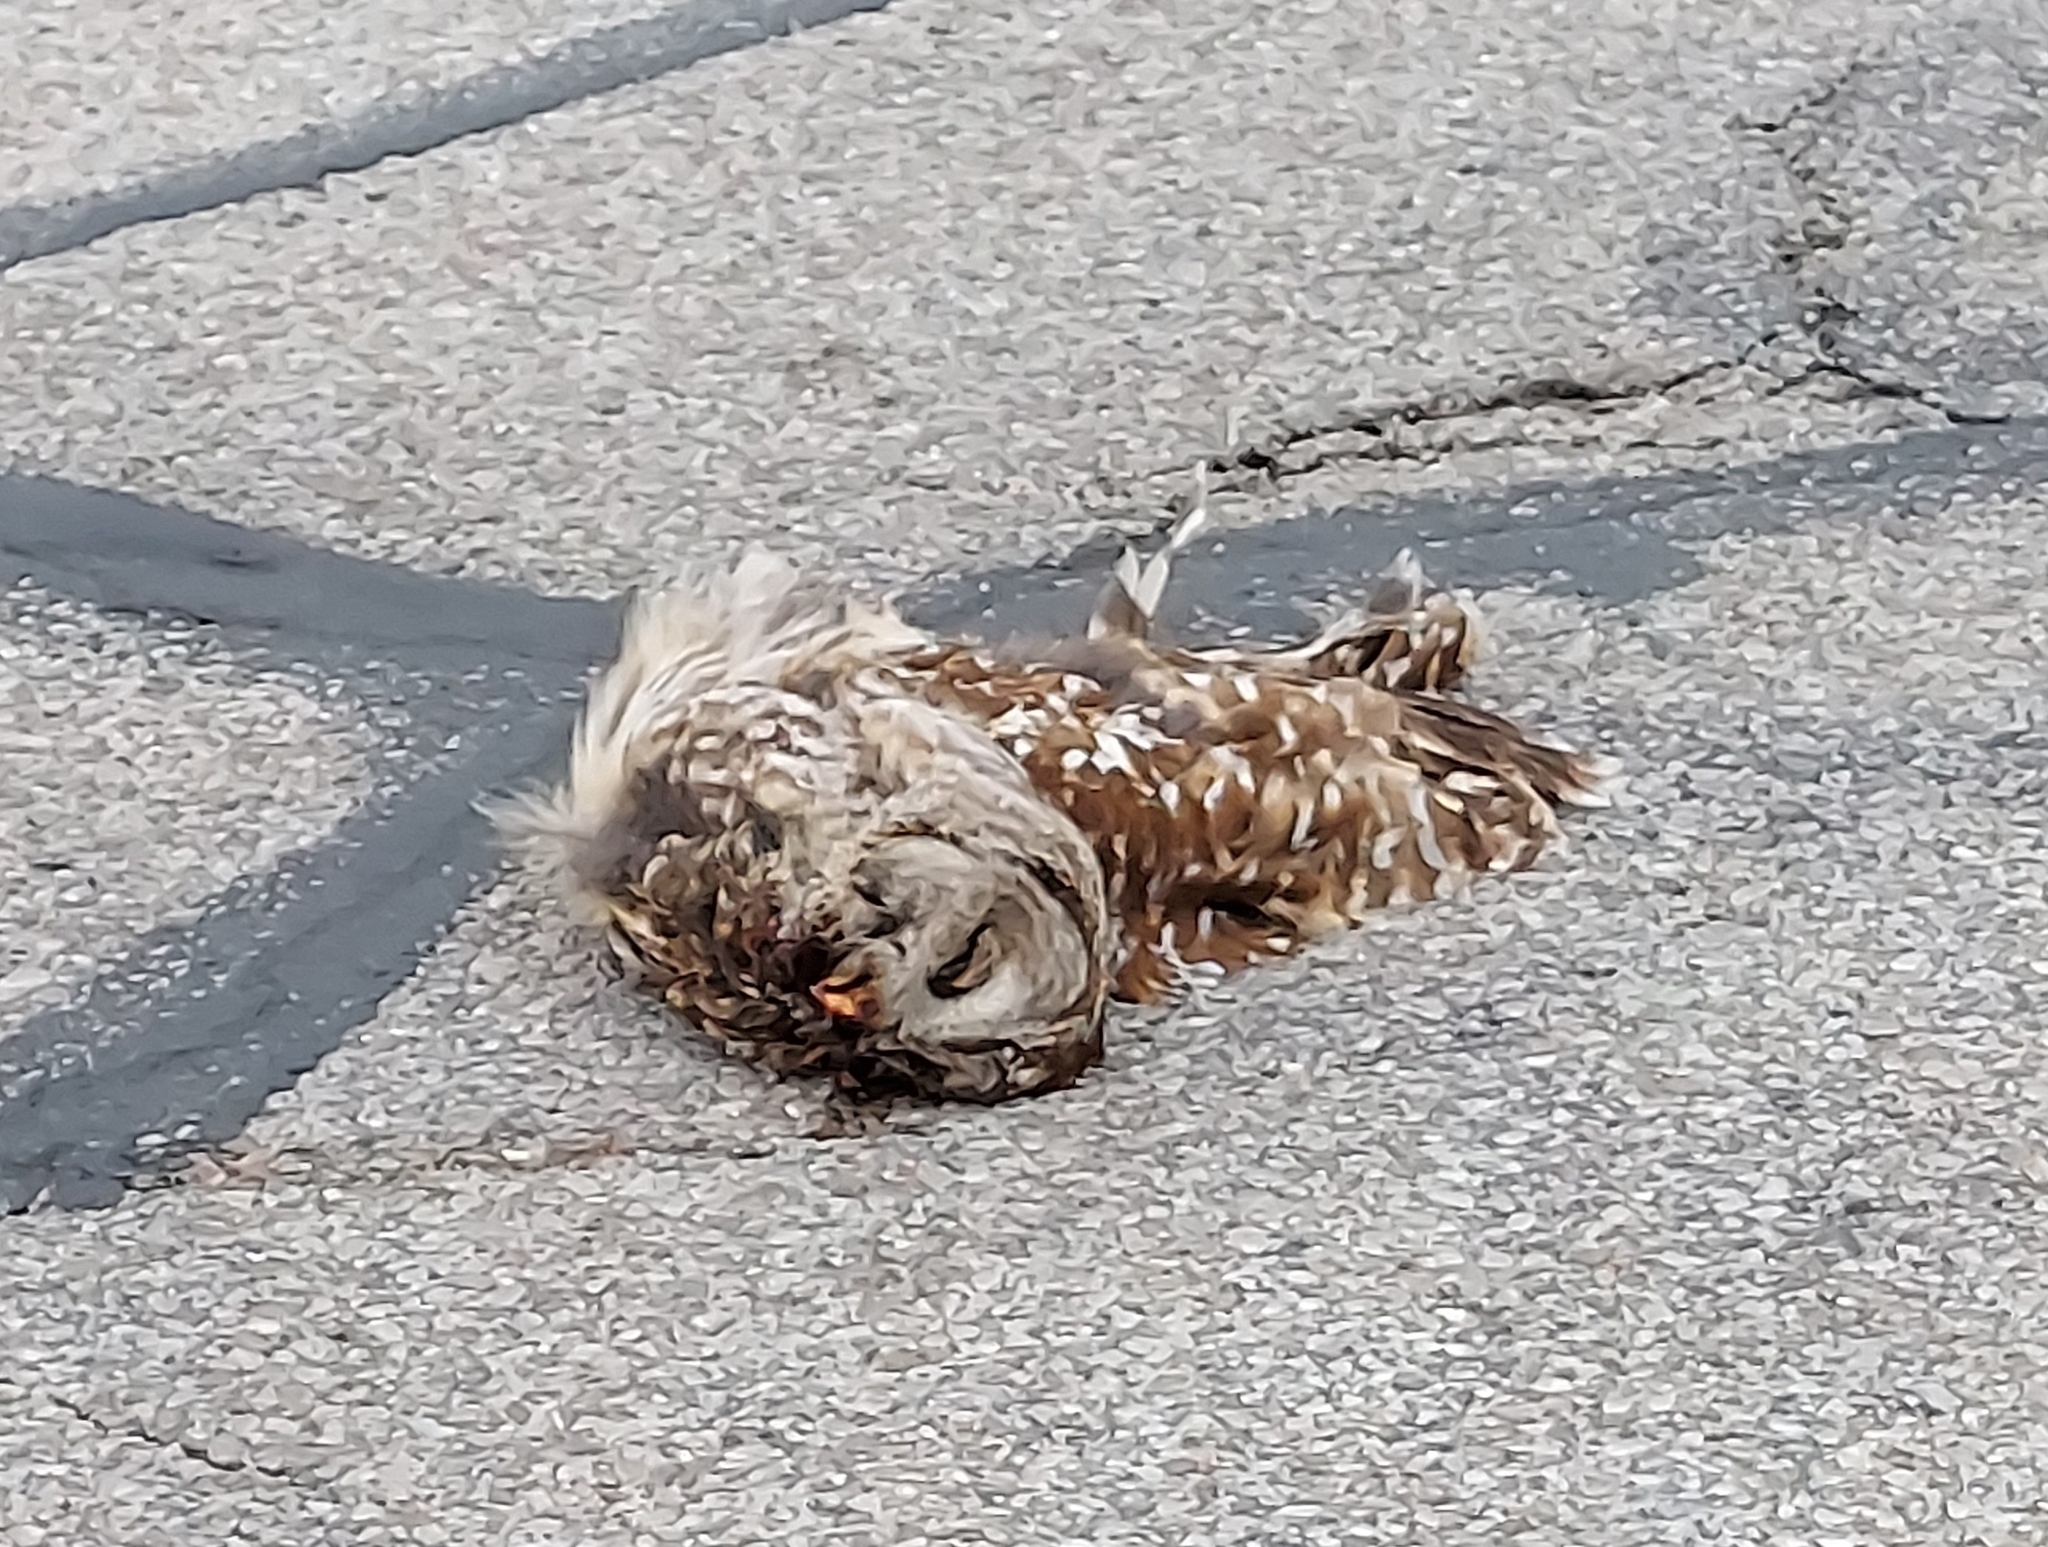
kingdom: Animalia
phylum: Chordata
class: Aves
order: Strigiformes
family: Strigidae
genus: Strix
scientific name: Strix varia
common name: Barred owl
